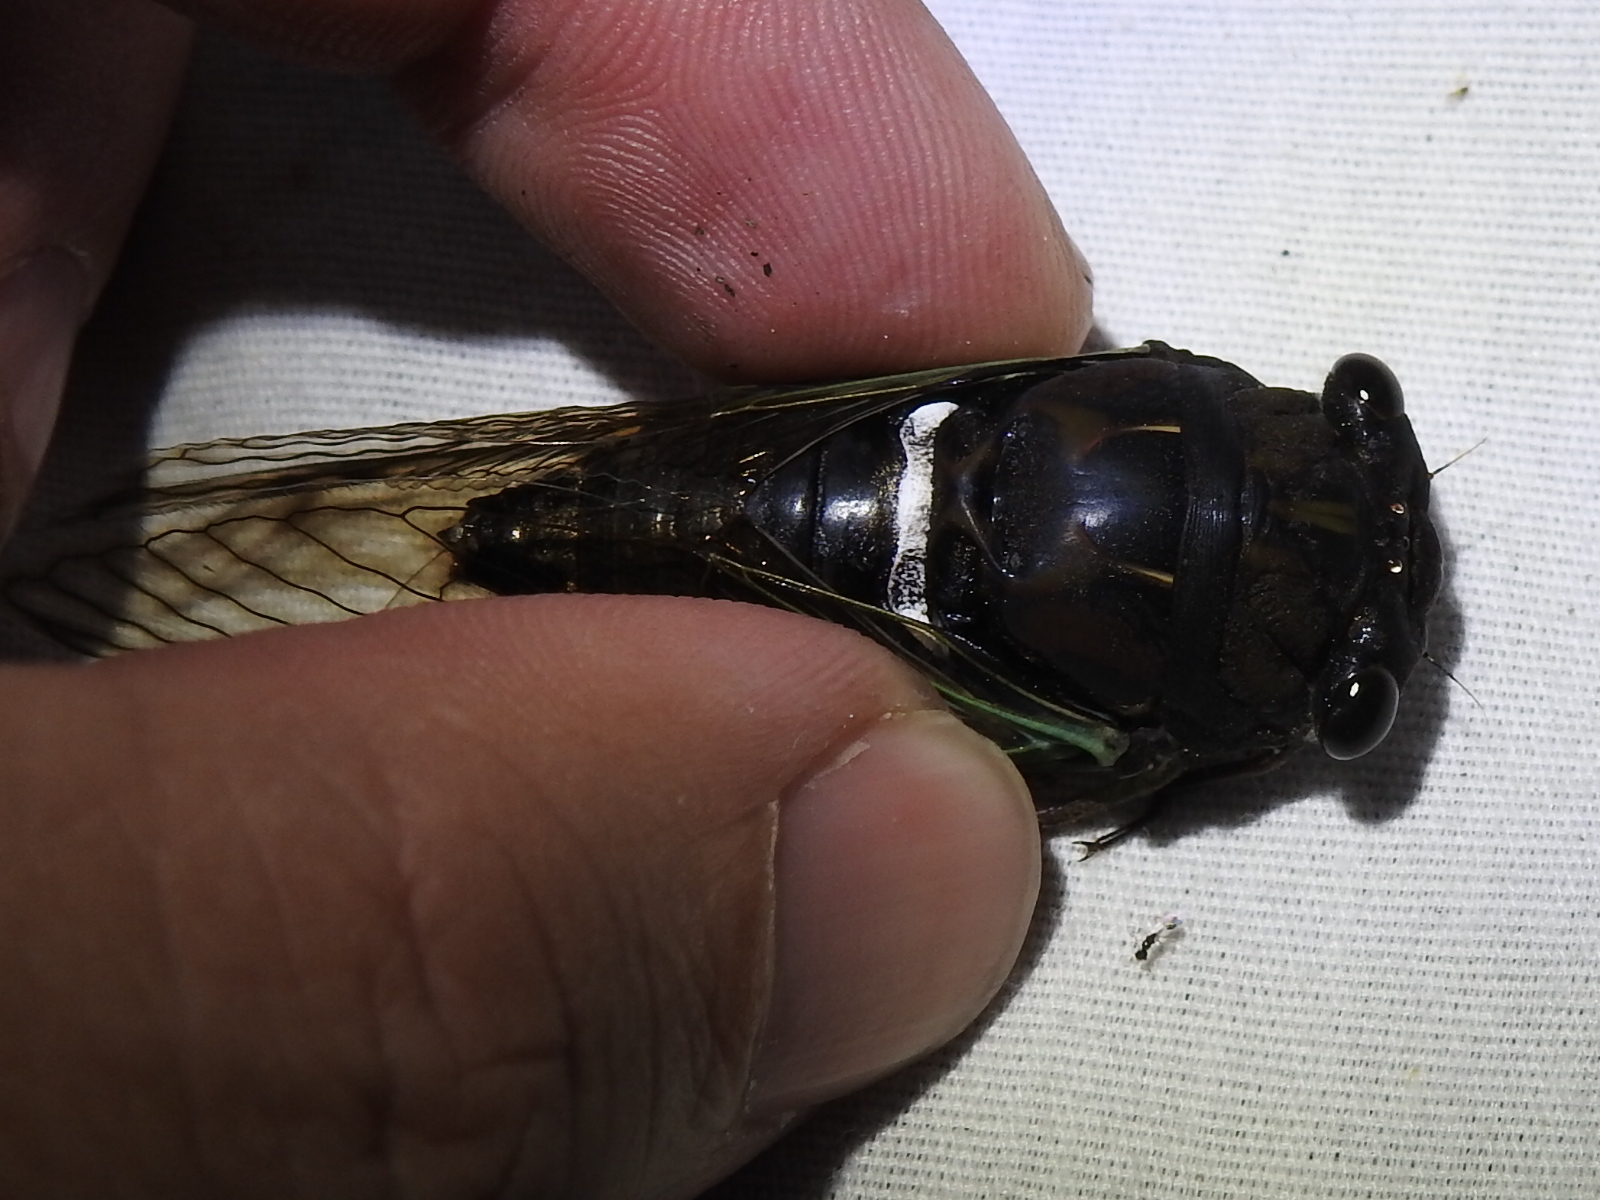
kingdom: Animalia
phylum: Arthropoda
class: Insecta
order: Hemiptera
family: Cicadidae
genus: Neotibicen
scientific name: Neotibicen lyricen
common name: Lyric cicada
